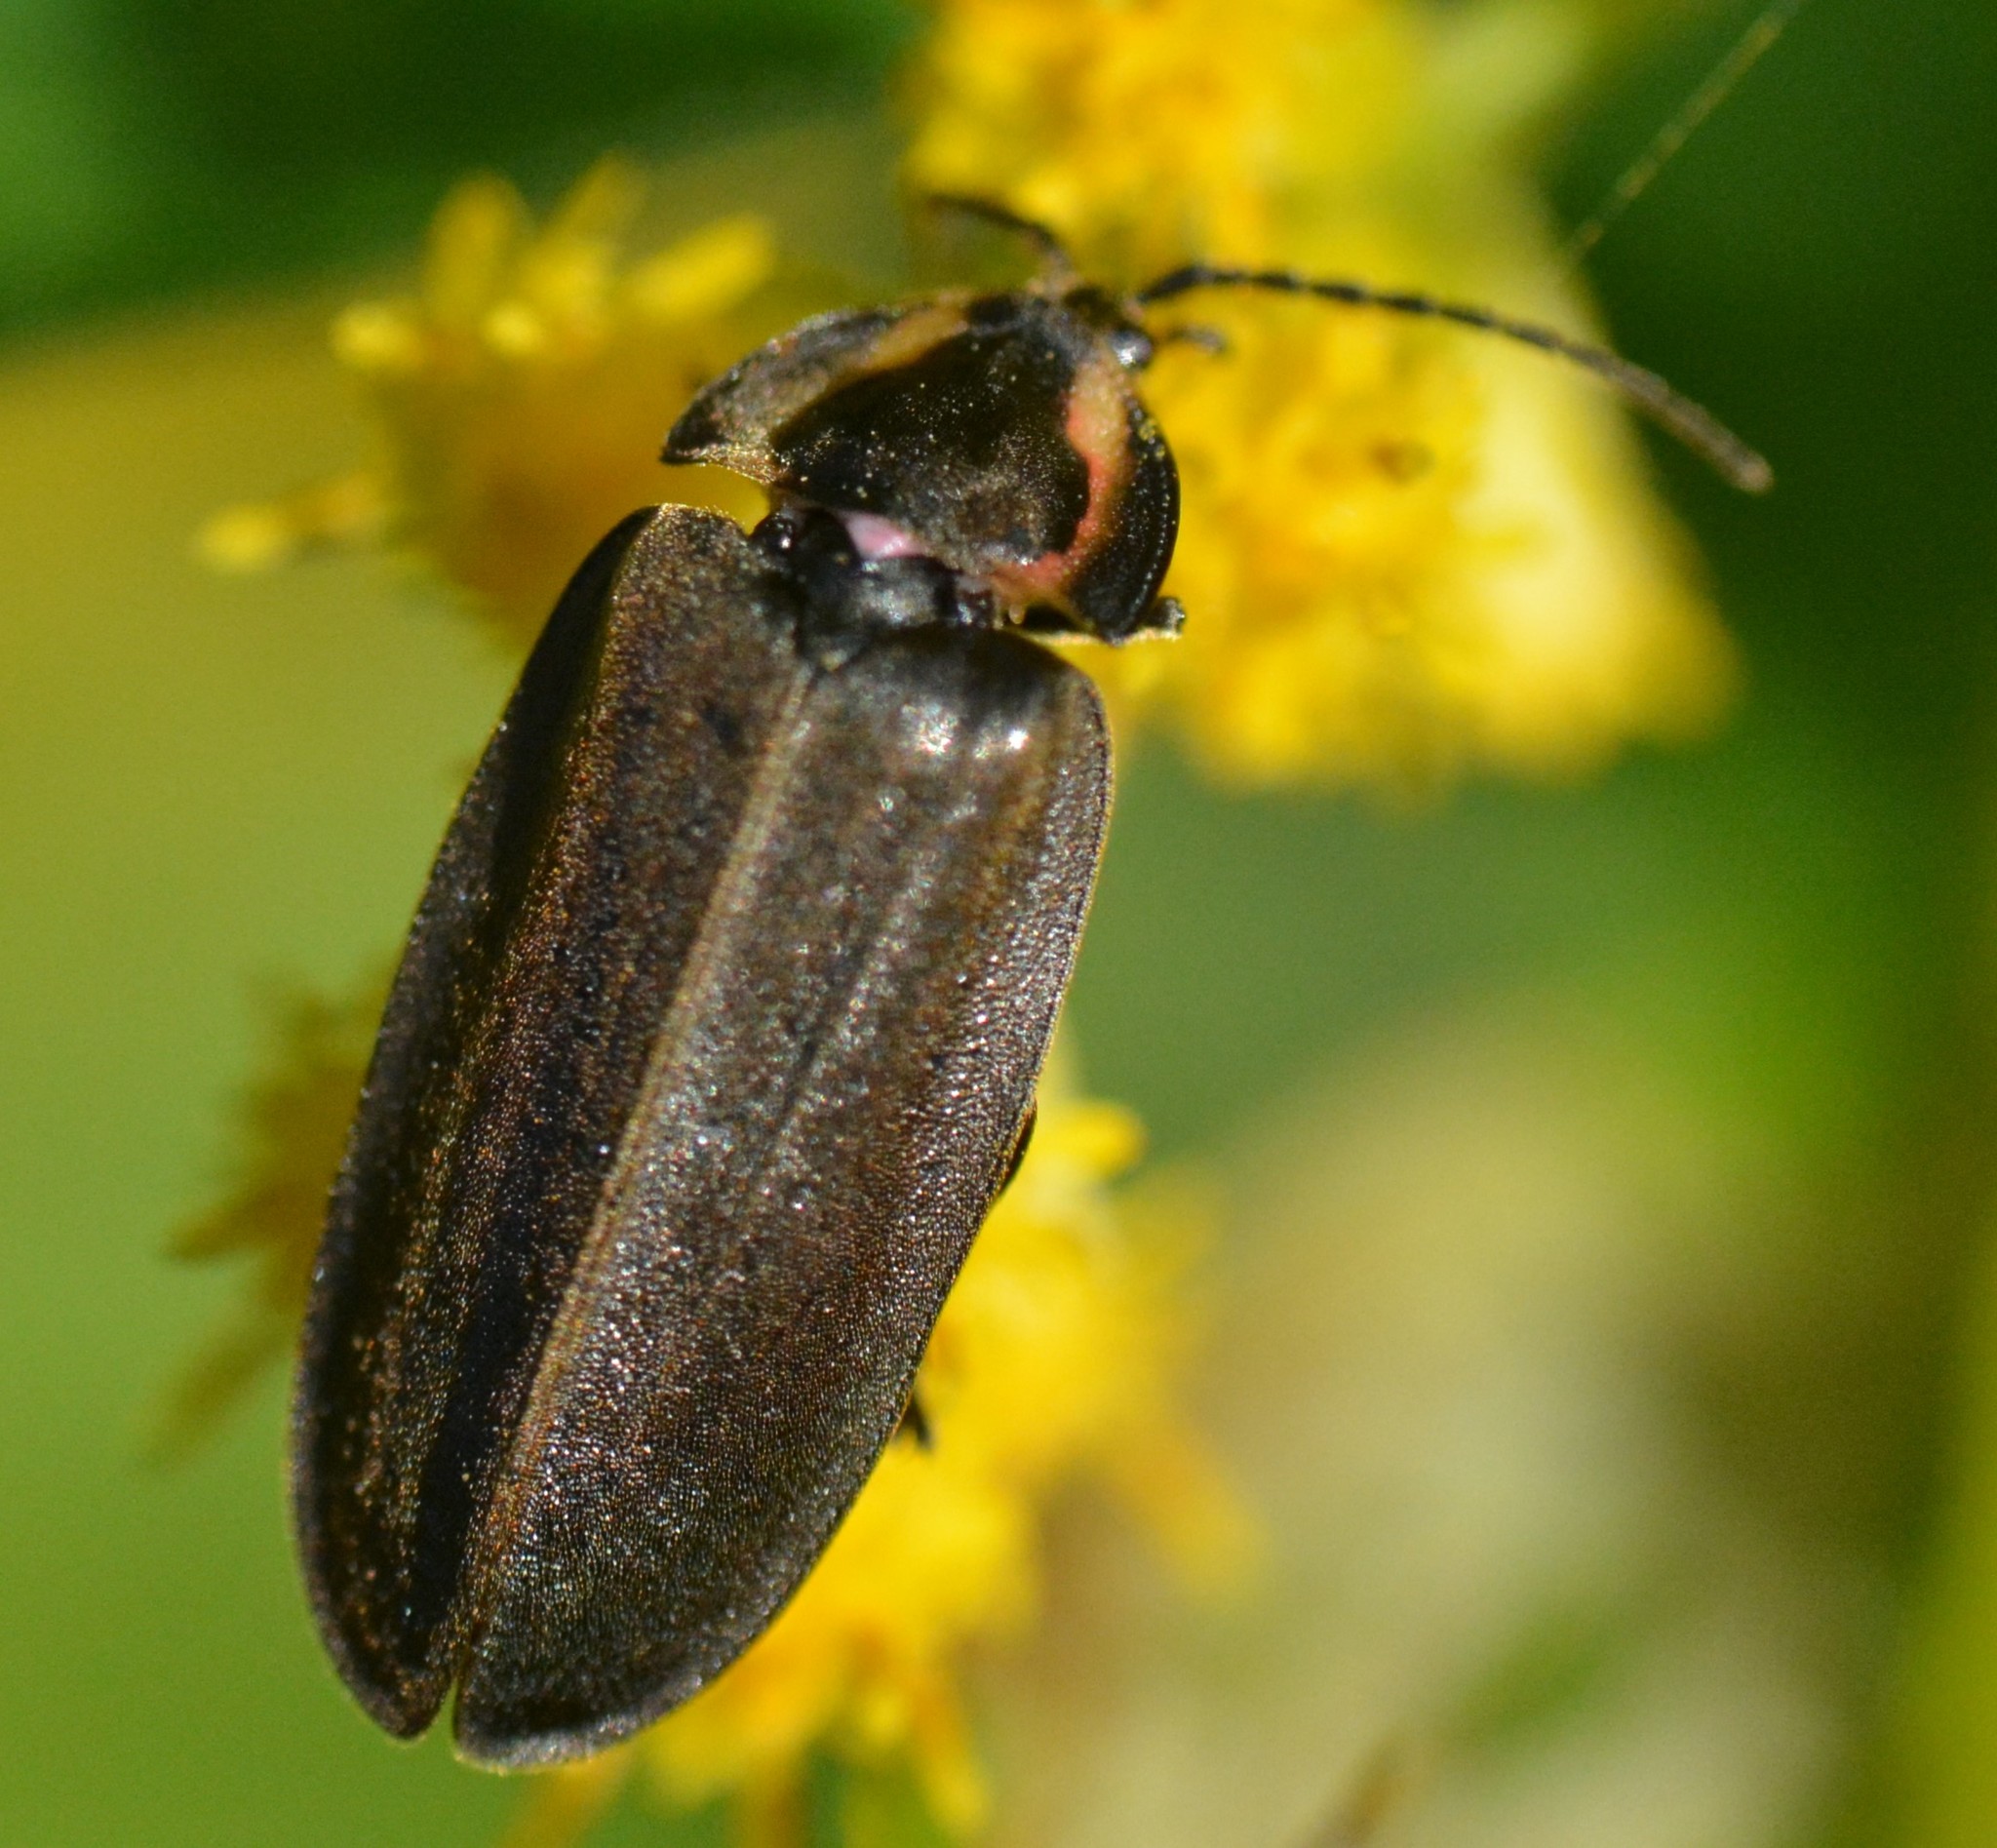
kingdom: Animalia
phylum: Arthropoda
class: Insecta
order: Coleoptera
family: Lampyridae
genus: Photinus
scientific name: Photinus corrusca
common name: Winter firefly
